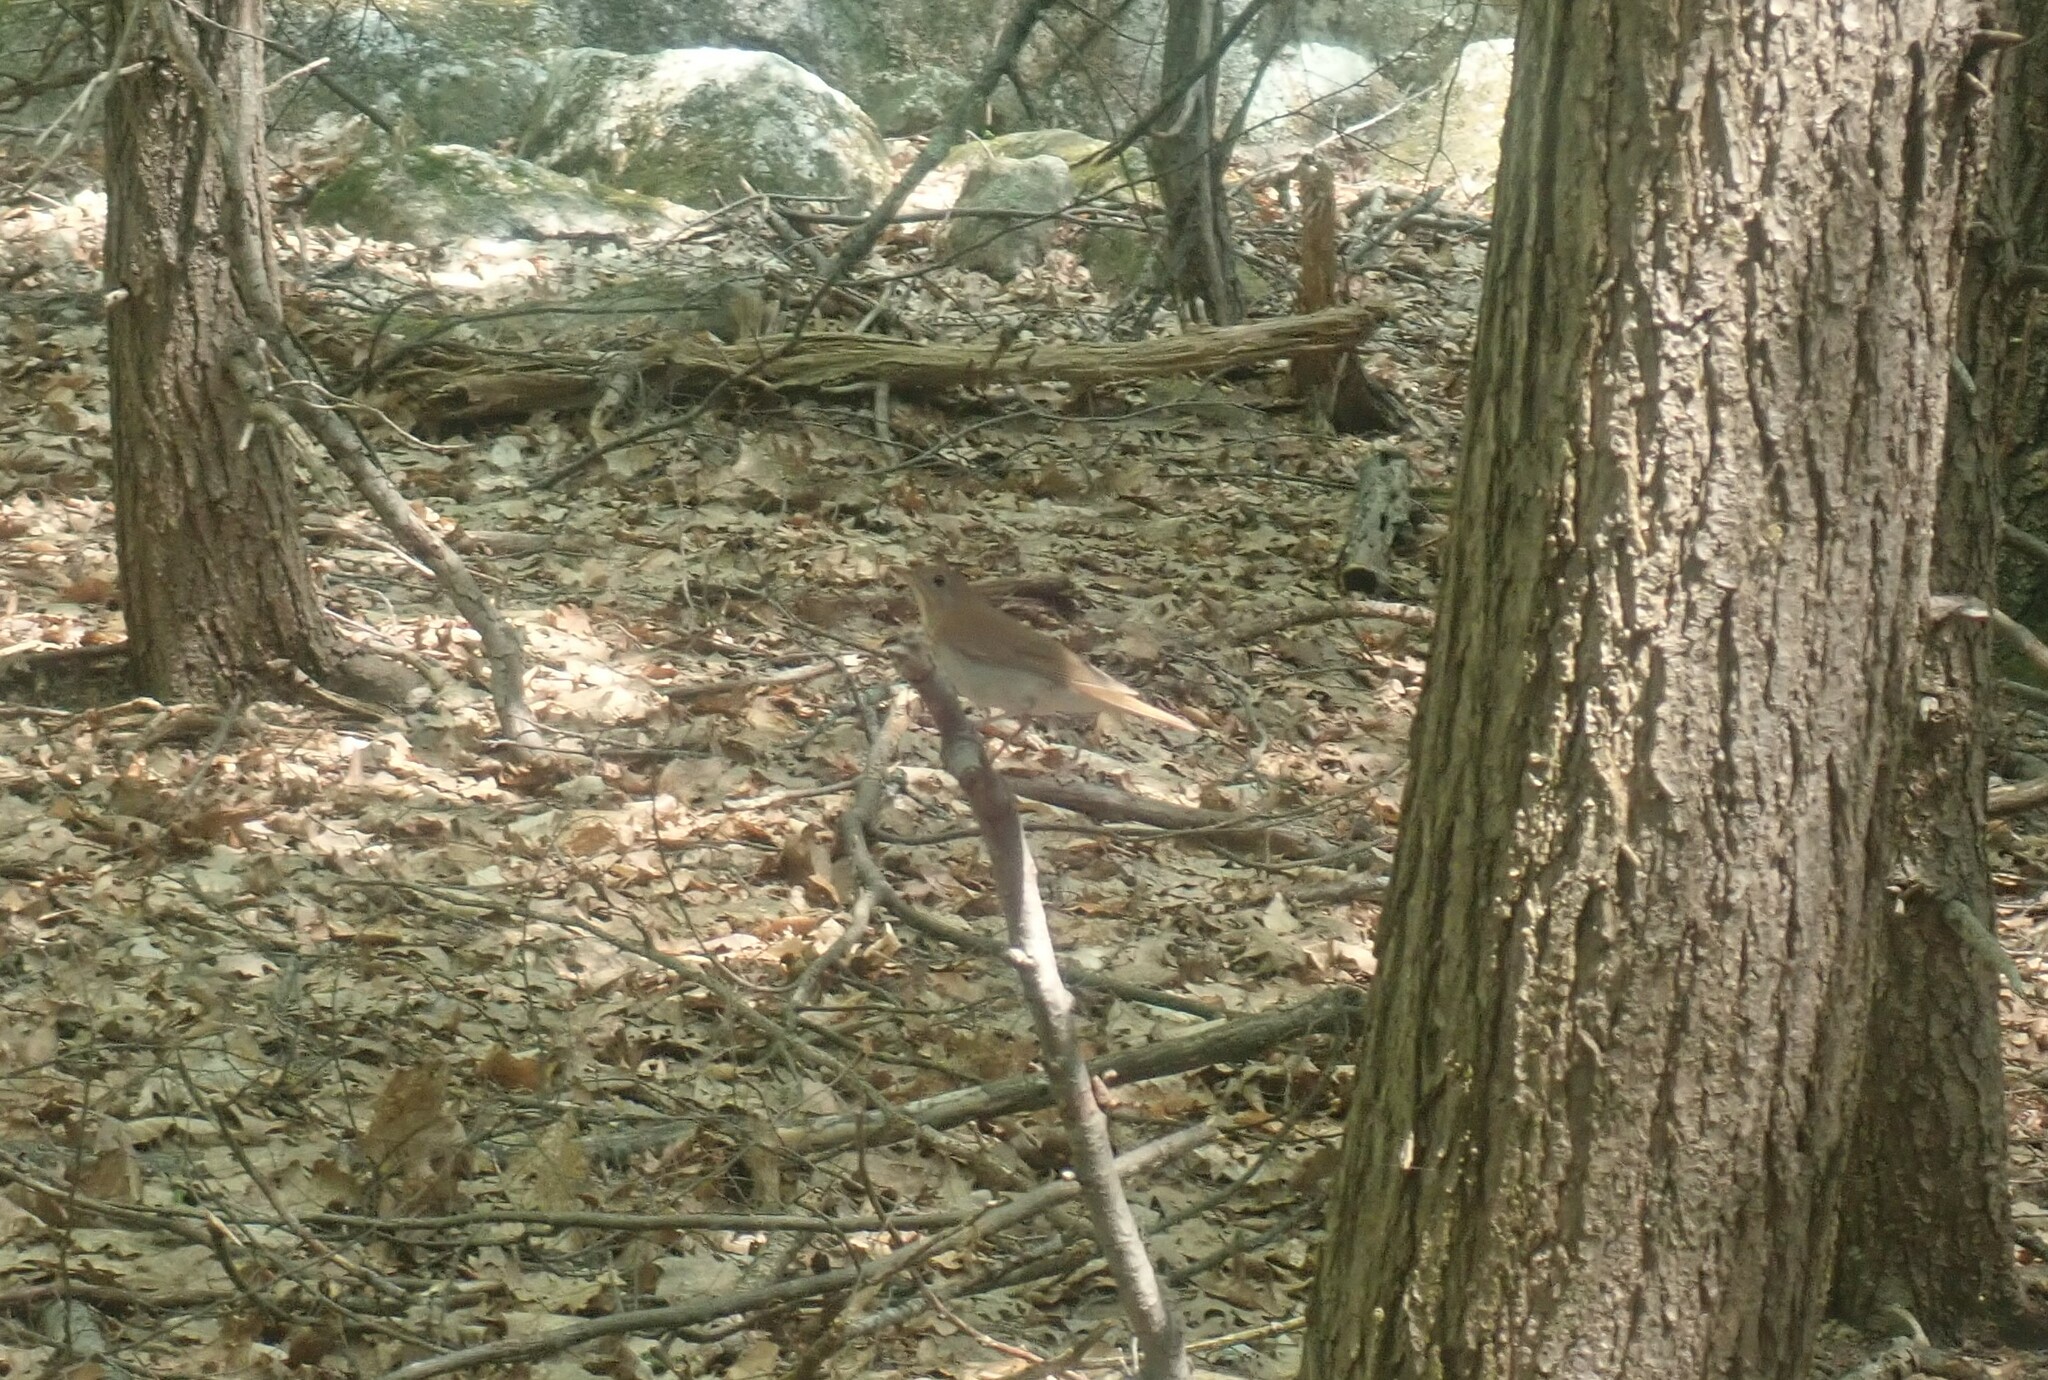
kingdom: Animalia
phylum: Chordata
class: Aves
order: Passeriformes
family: Turdidae
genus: Catharus
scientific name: Catharus fuscescens
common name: Veery
